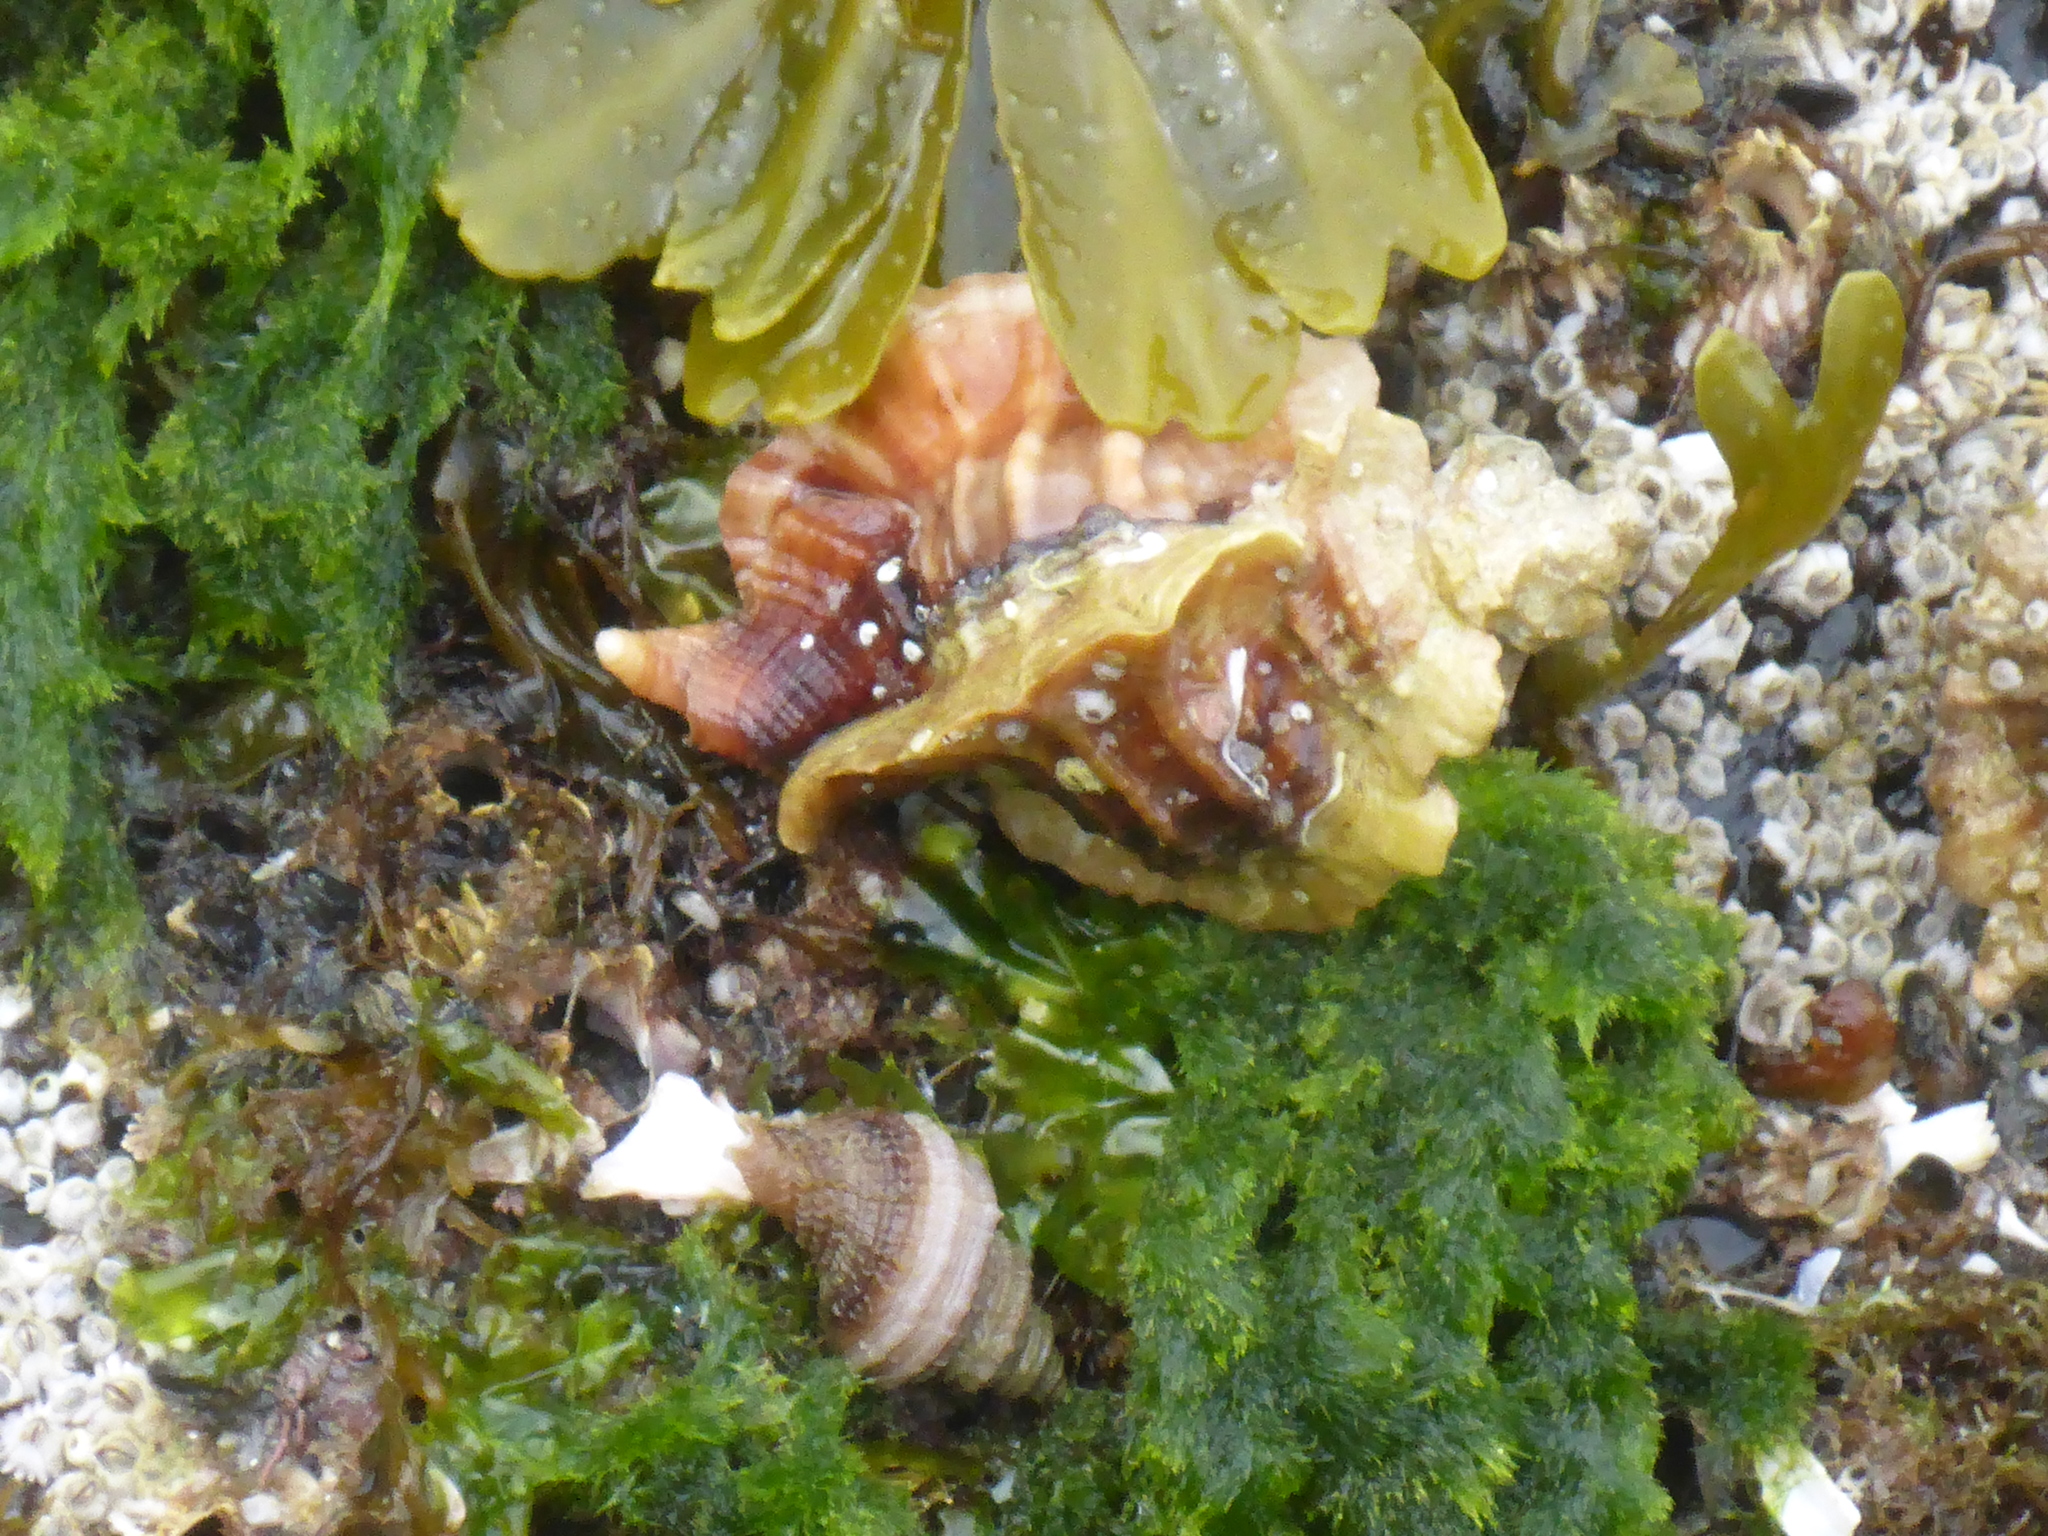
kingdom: Animalia
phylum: Mollusca
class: Gastropoda
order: Neogastropoda
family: Muricidae
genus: Ceratostoma
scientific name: Ceratostoma foliatum
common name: Foliate thorn purpura
